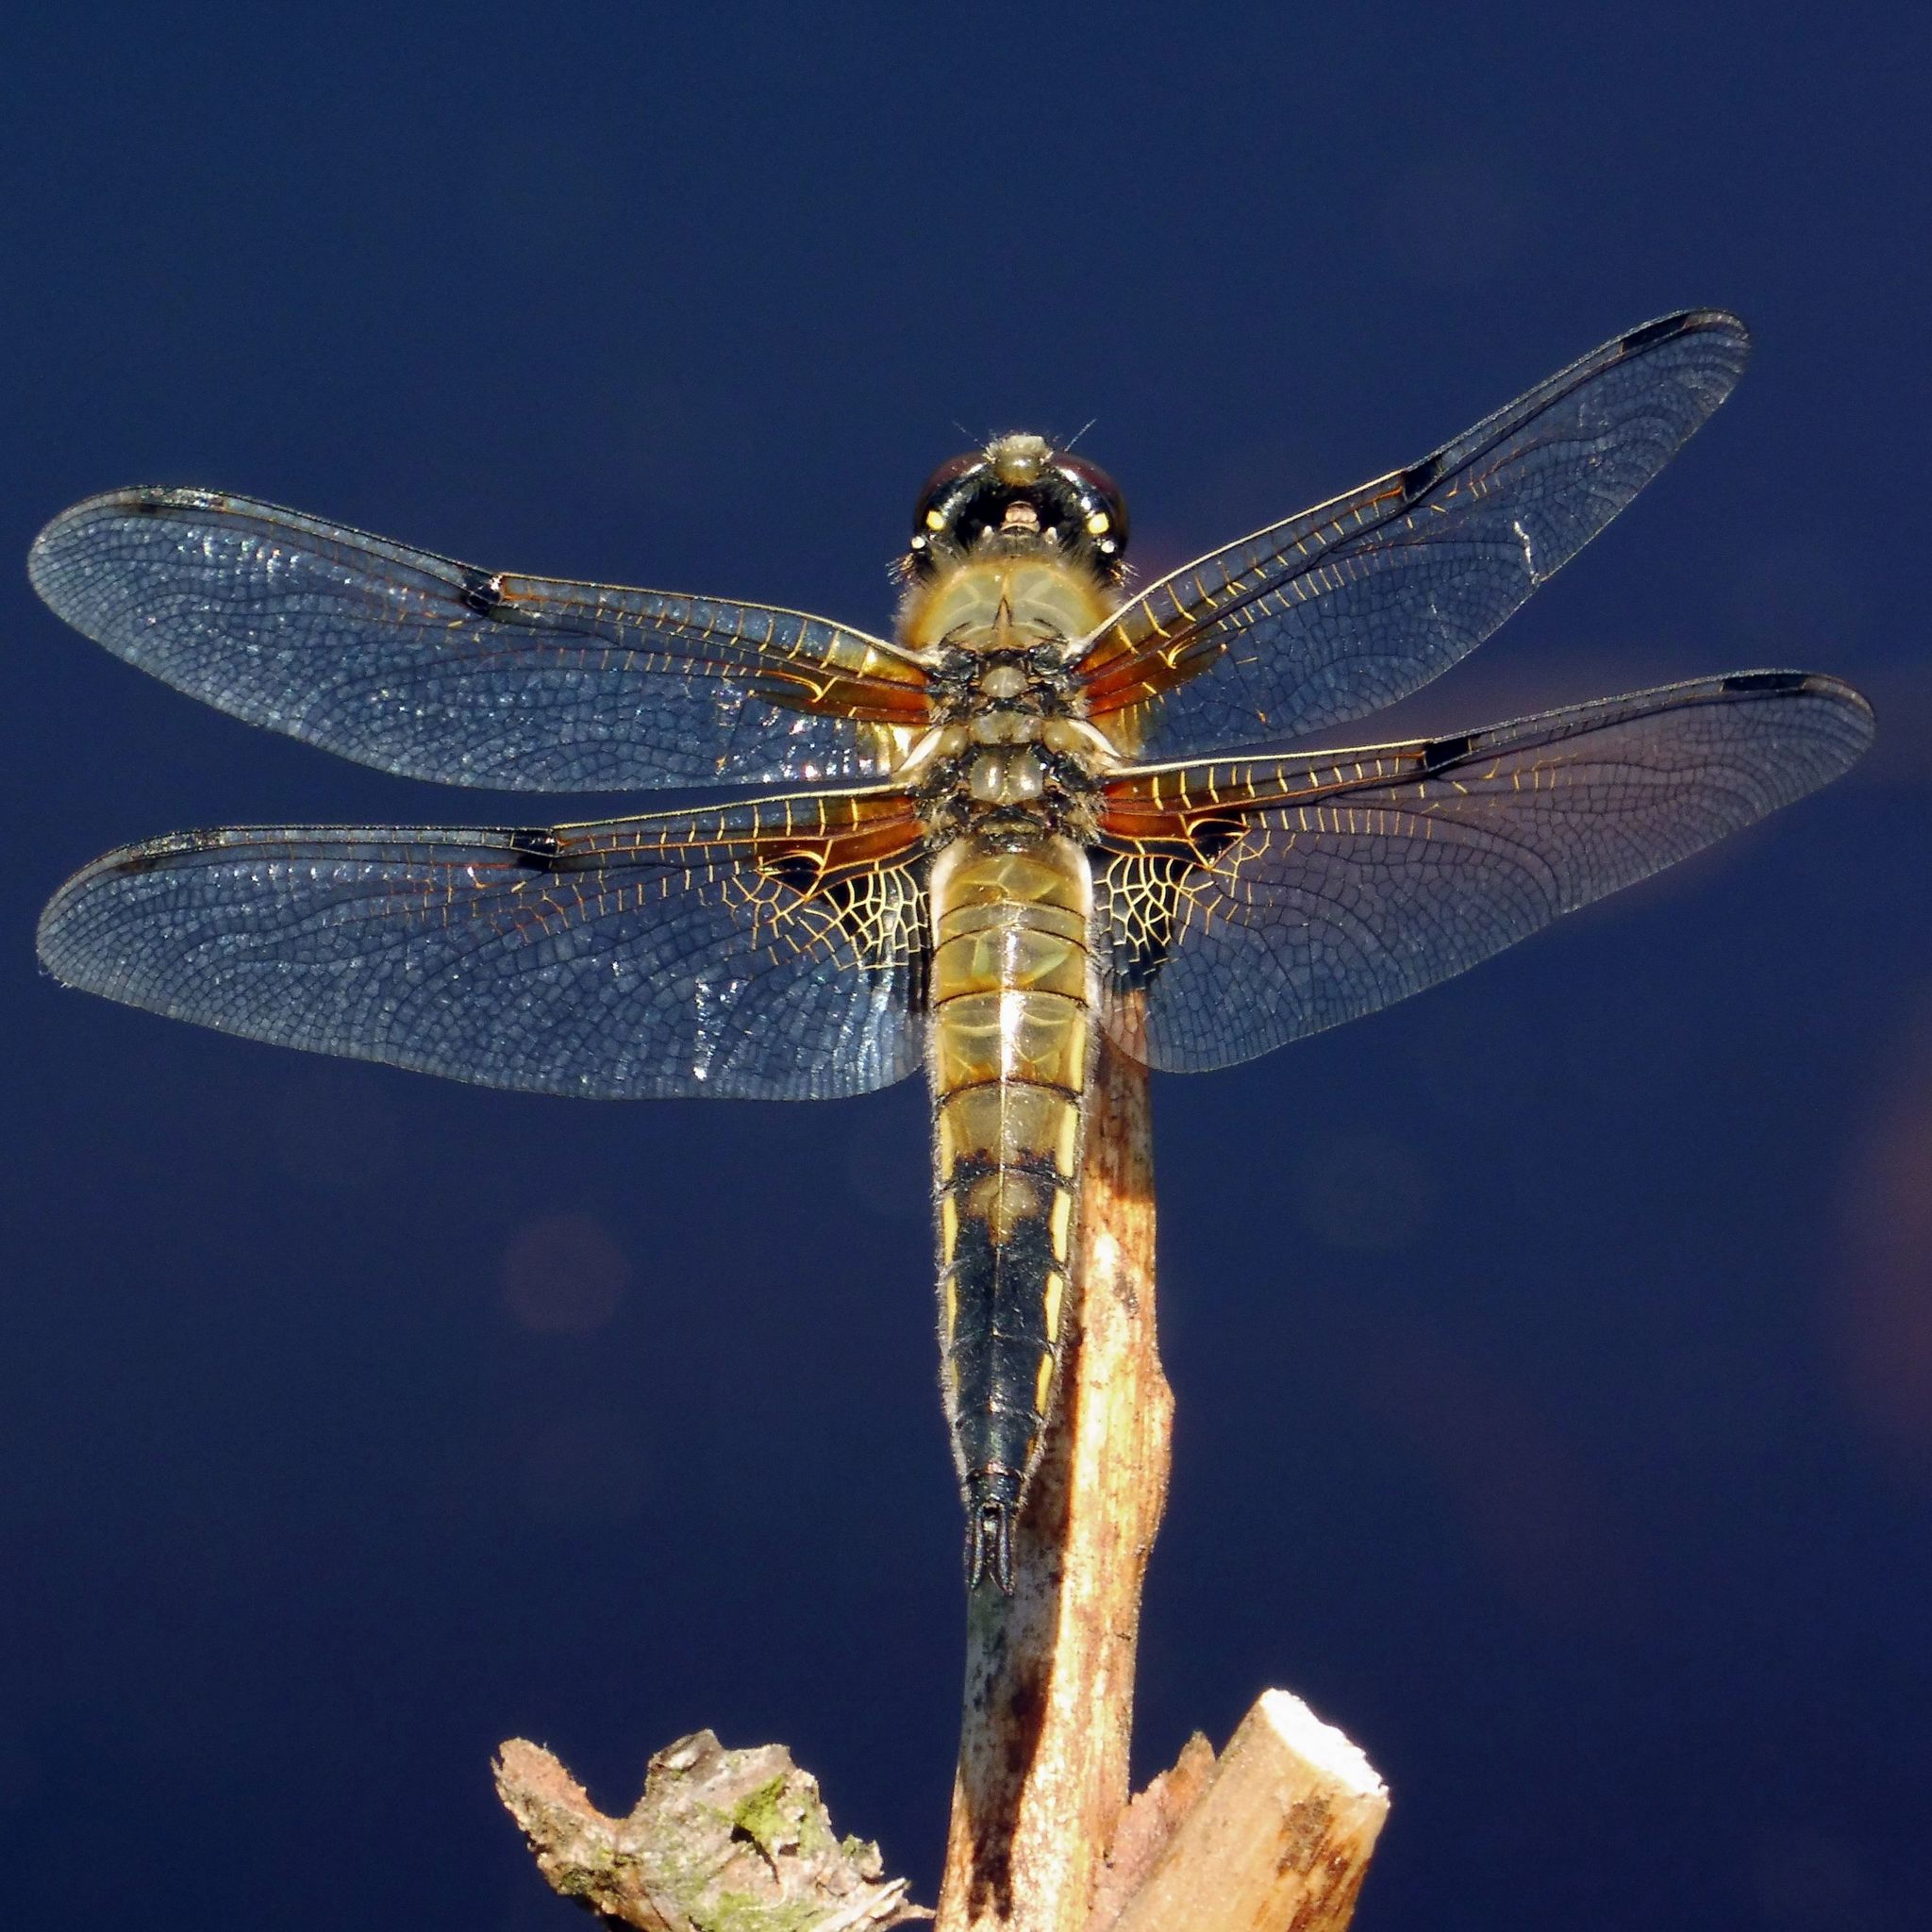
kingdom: Animalia
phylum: Arthropoda
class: Insecta
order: Odonata
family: Libellulidae
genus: Libellula
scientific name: Libellula quadrimaculata
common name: Four-spotted chaser
